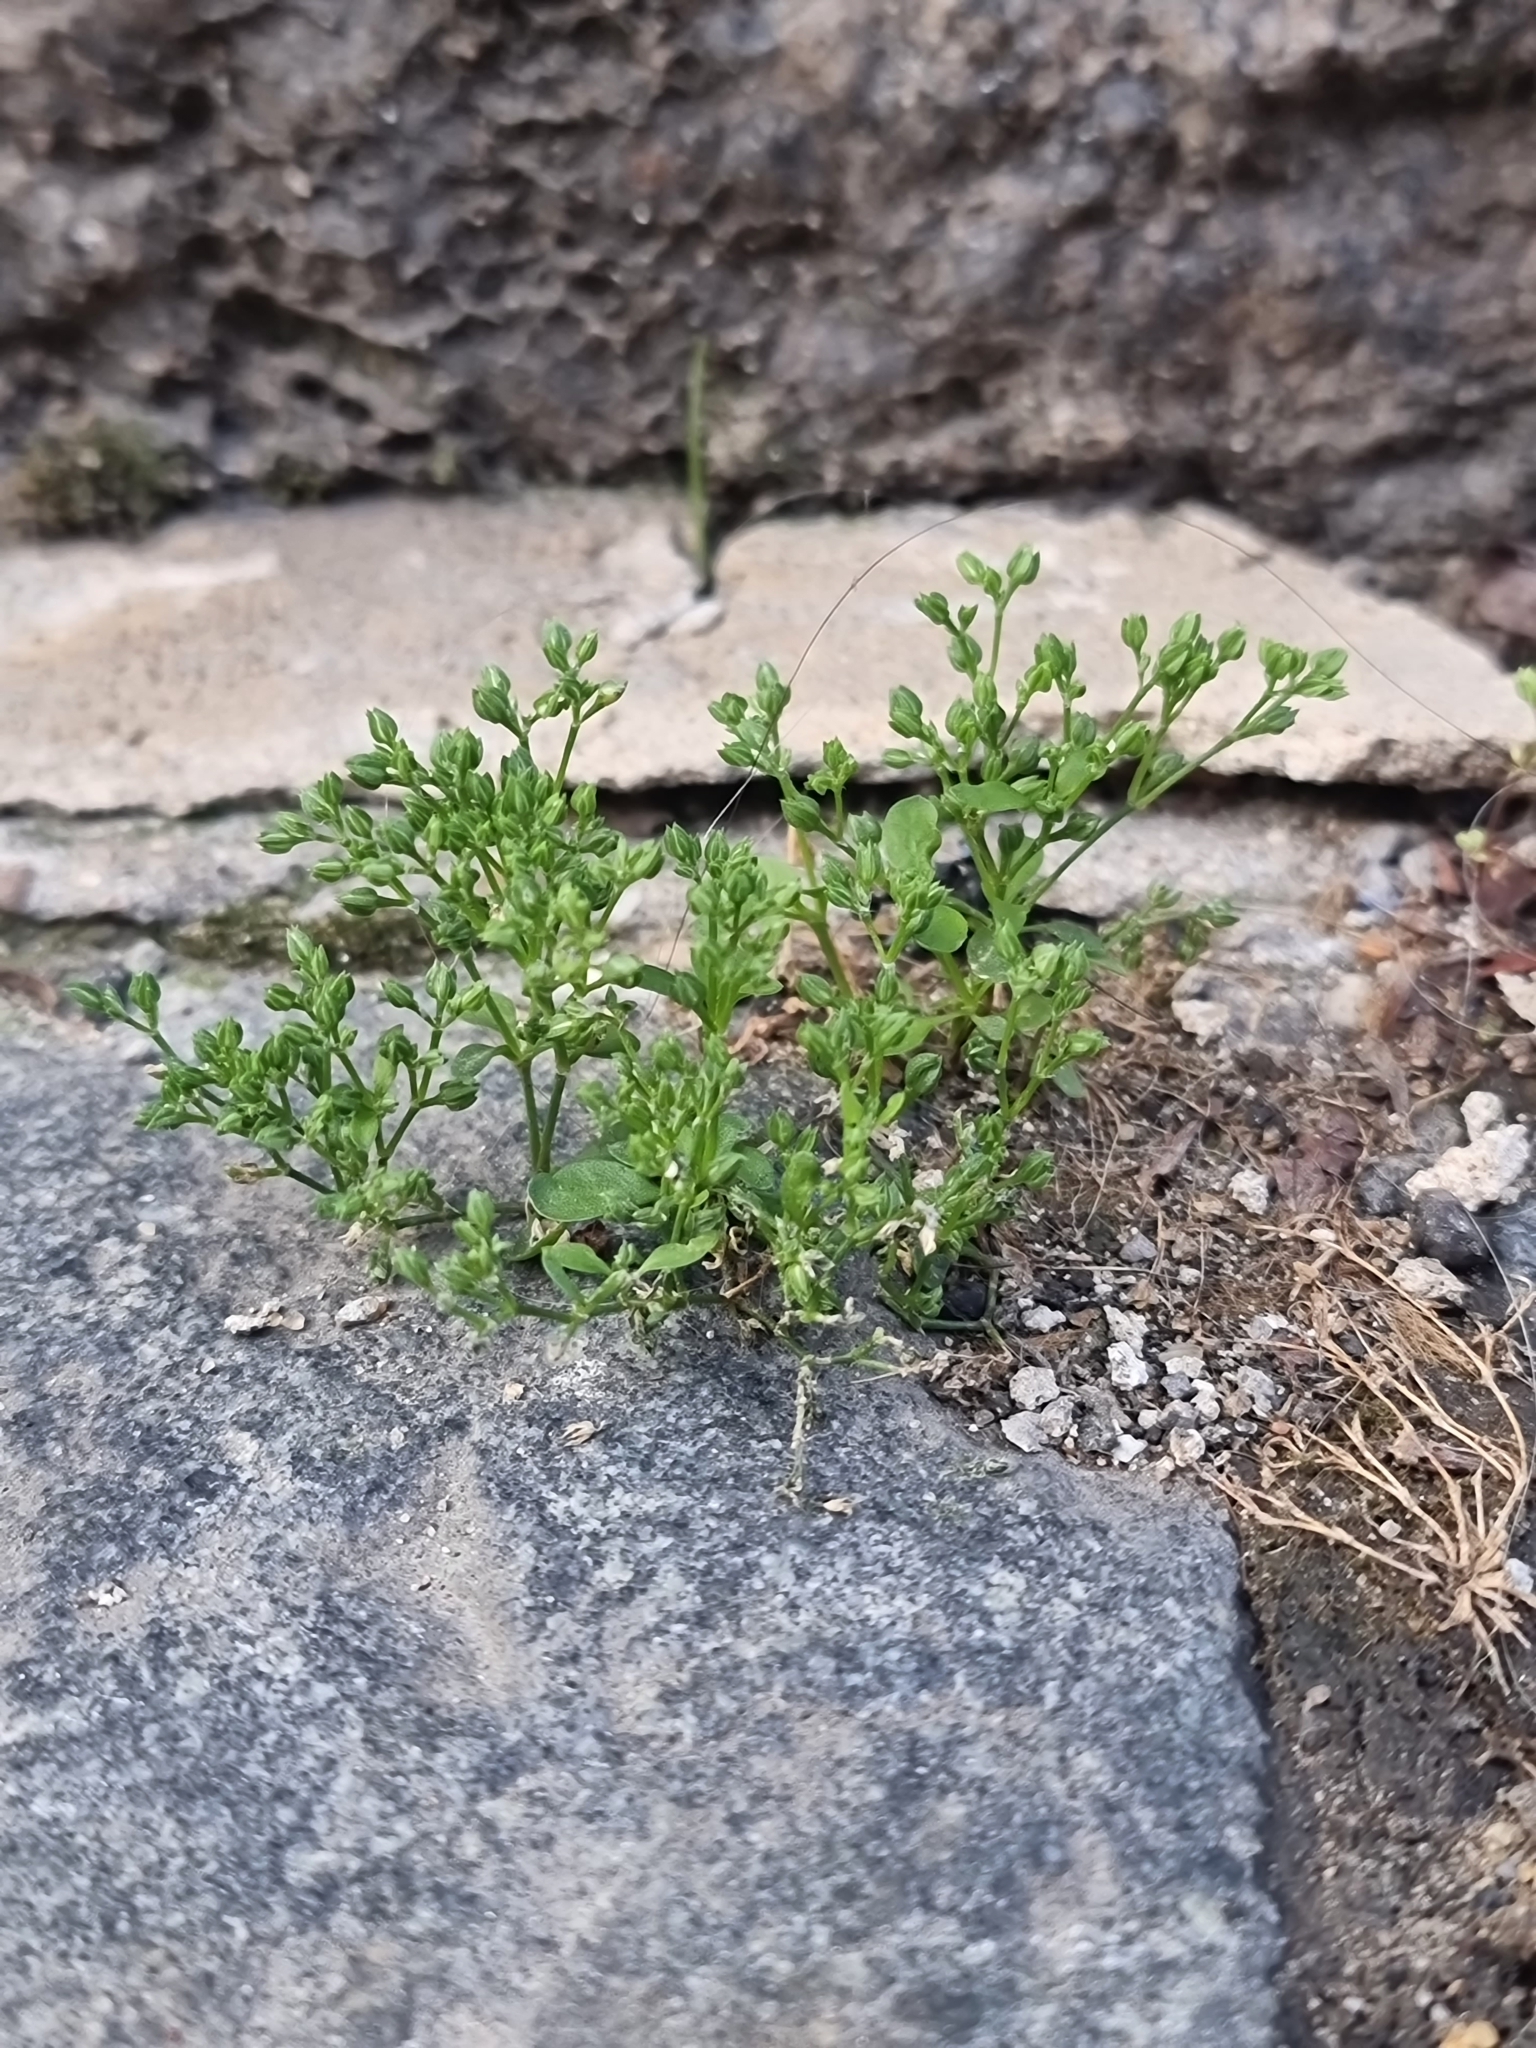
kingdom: Plantae
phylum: Tracheophyta
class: Magnoliopsida
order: Caryophyllales
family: Caryophyllaceae
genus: Polycarpon
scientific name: Polycarpon tetraphyllum
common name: Four-leaved all-seed
